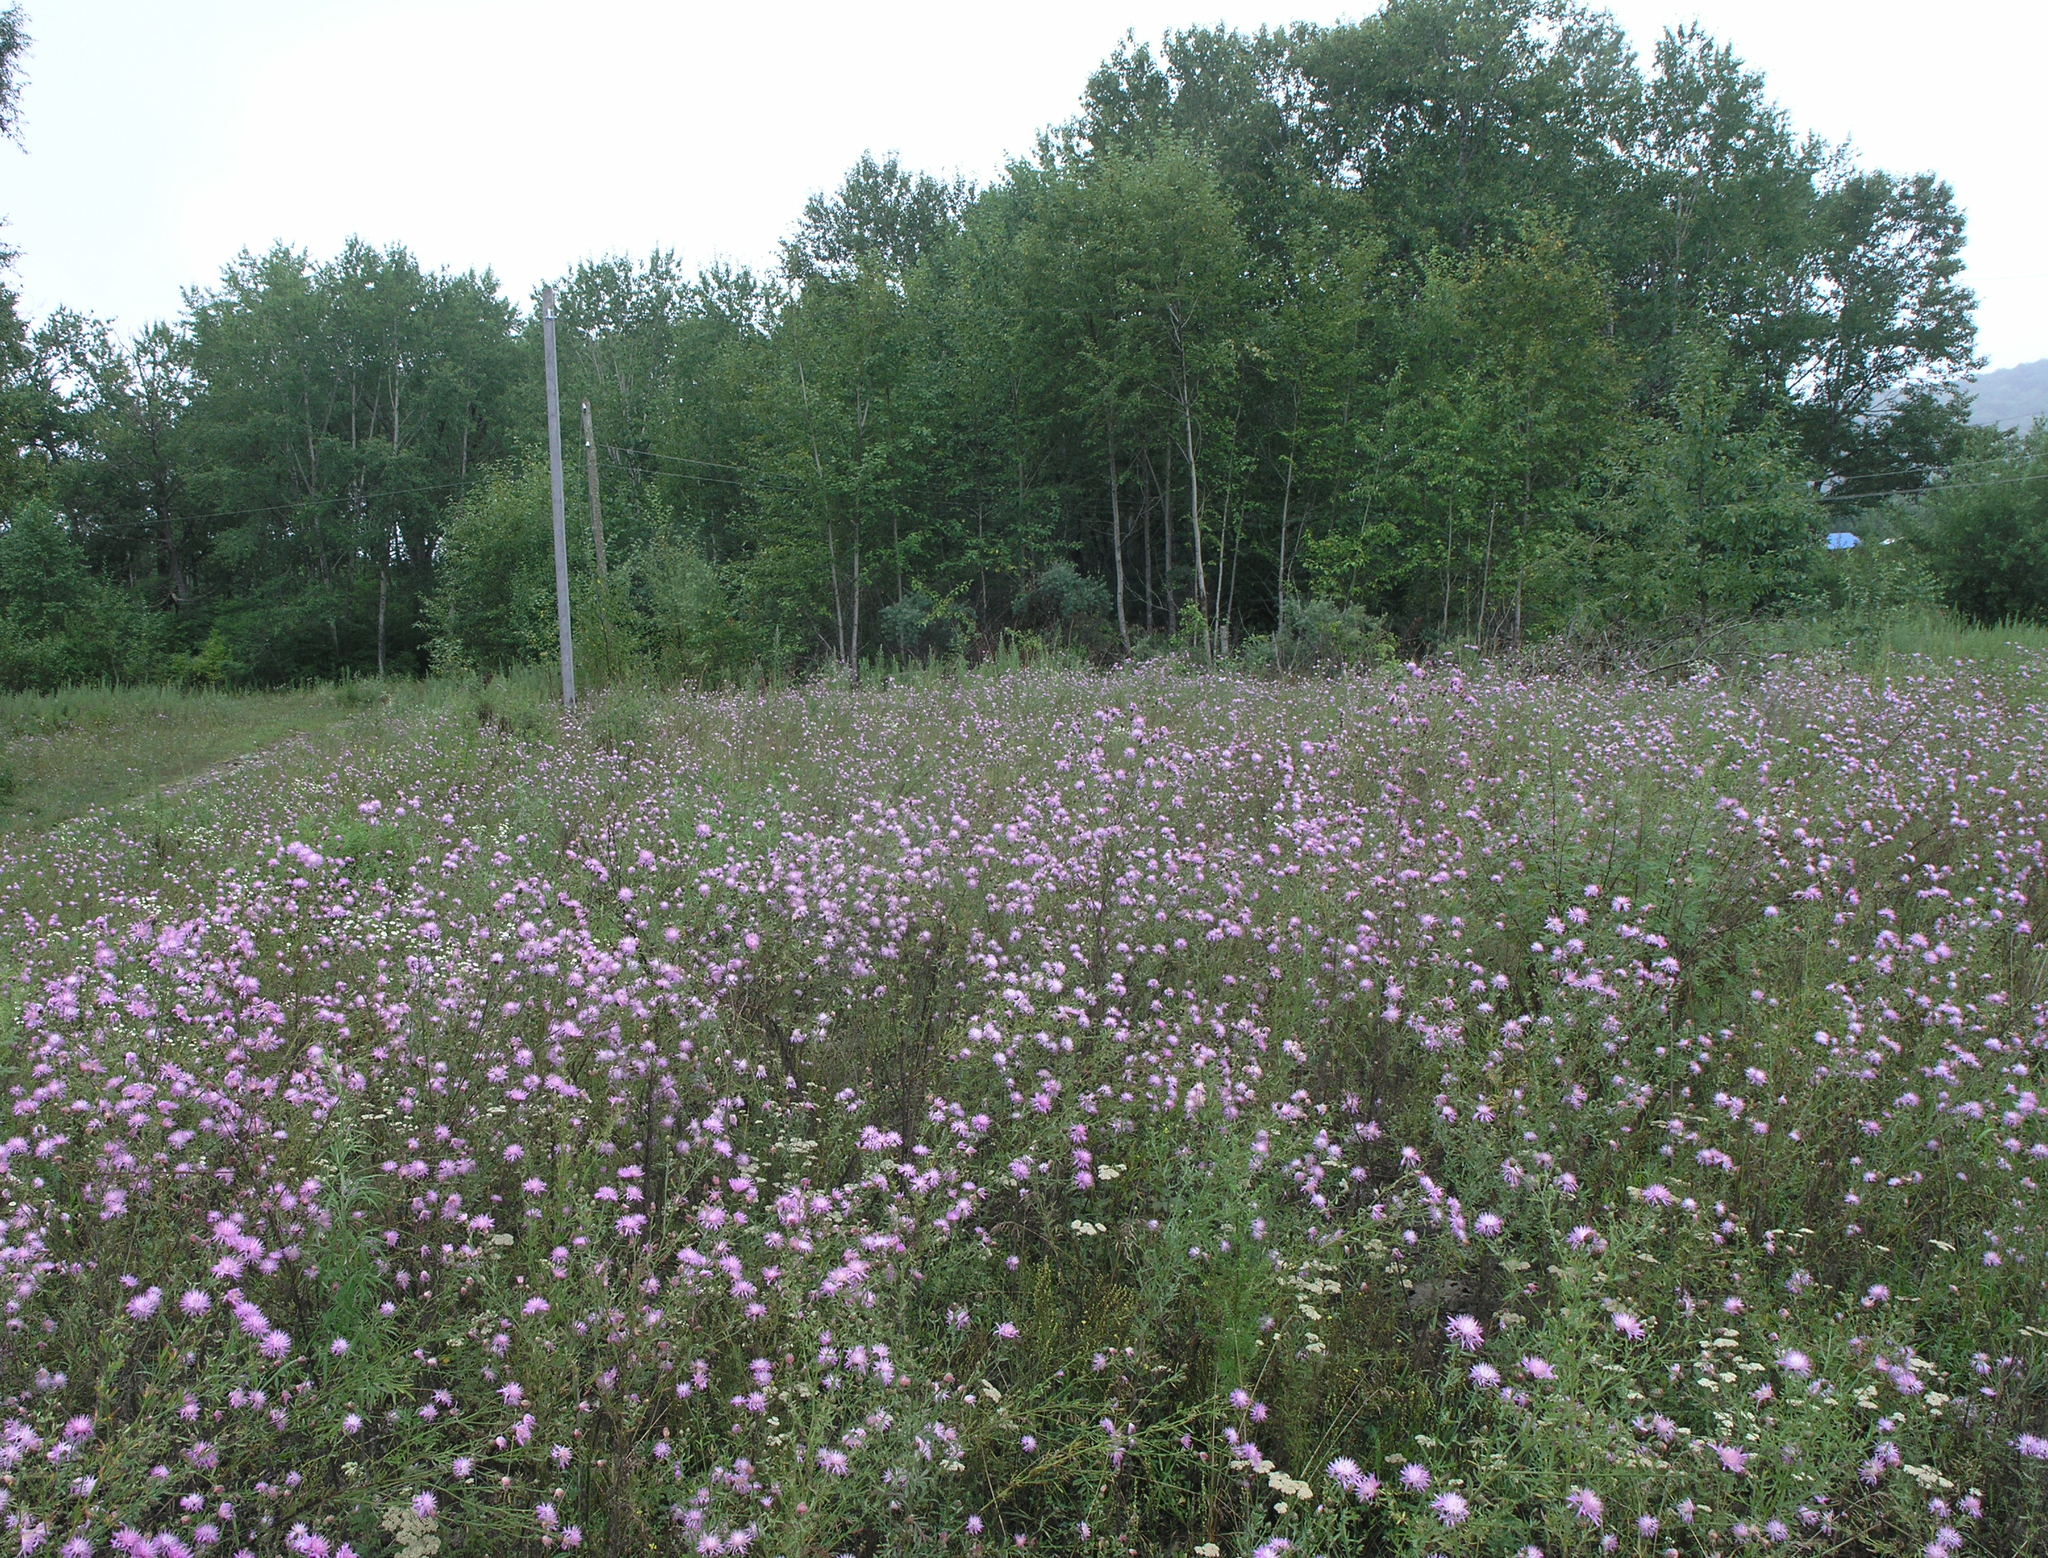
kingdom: Plantae
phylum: Tracheophyta
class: Magnoliopsida
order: Asterales
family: Asteraceae
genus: Centaurea
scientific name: Centaurea pseudomaculosa
